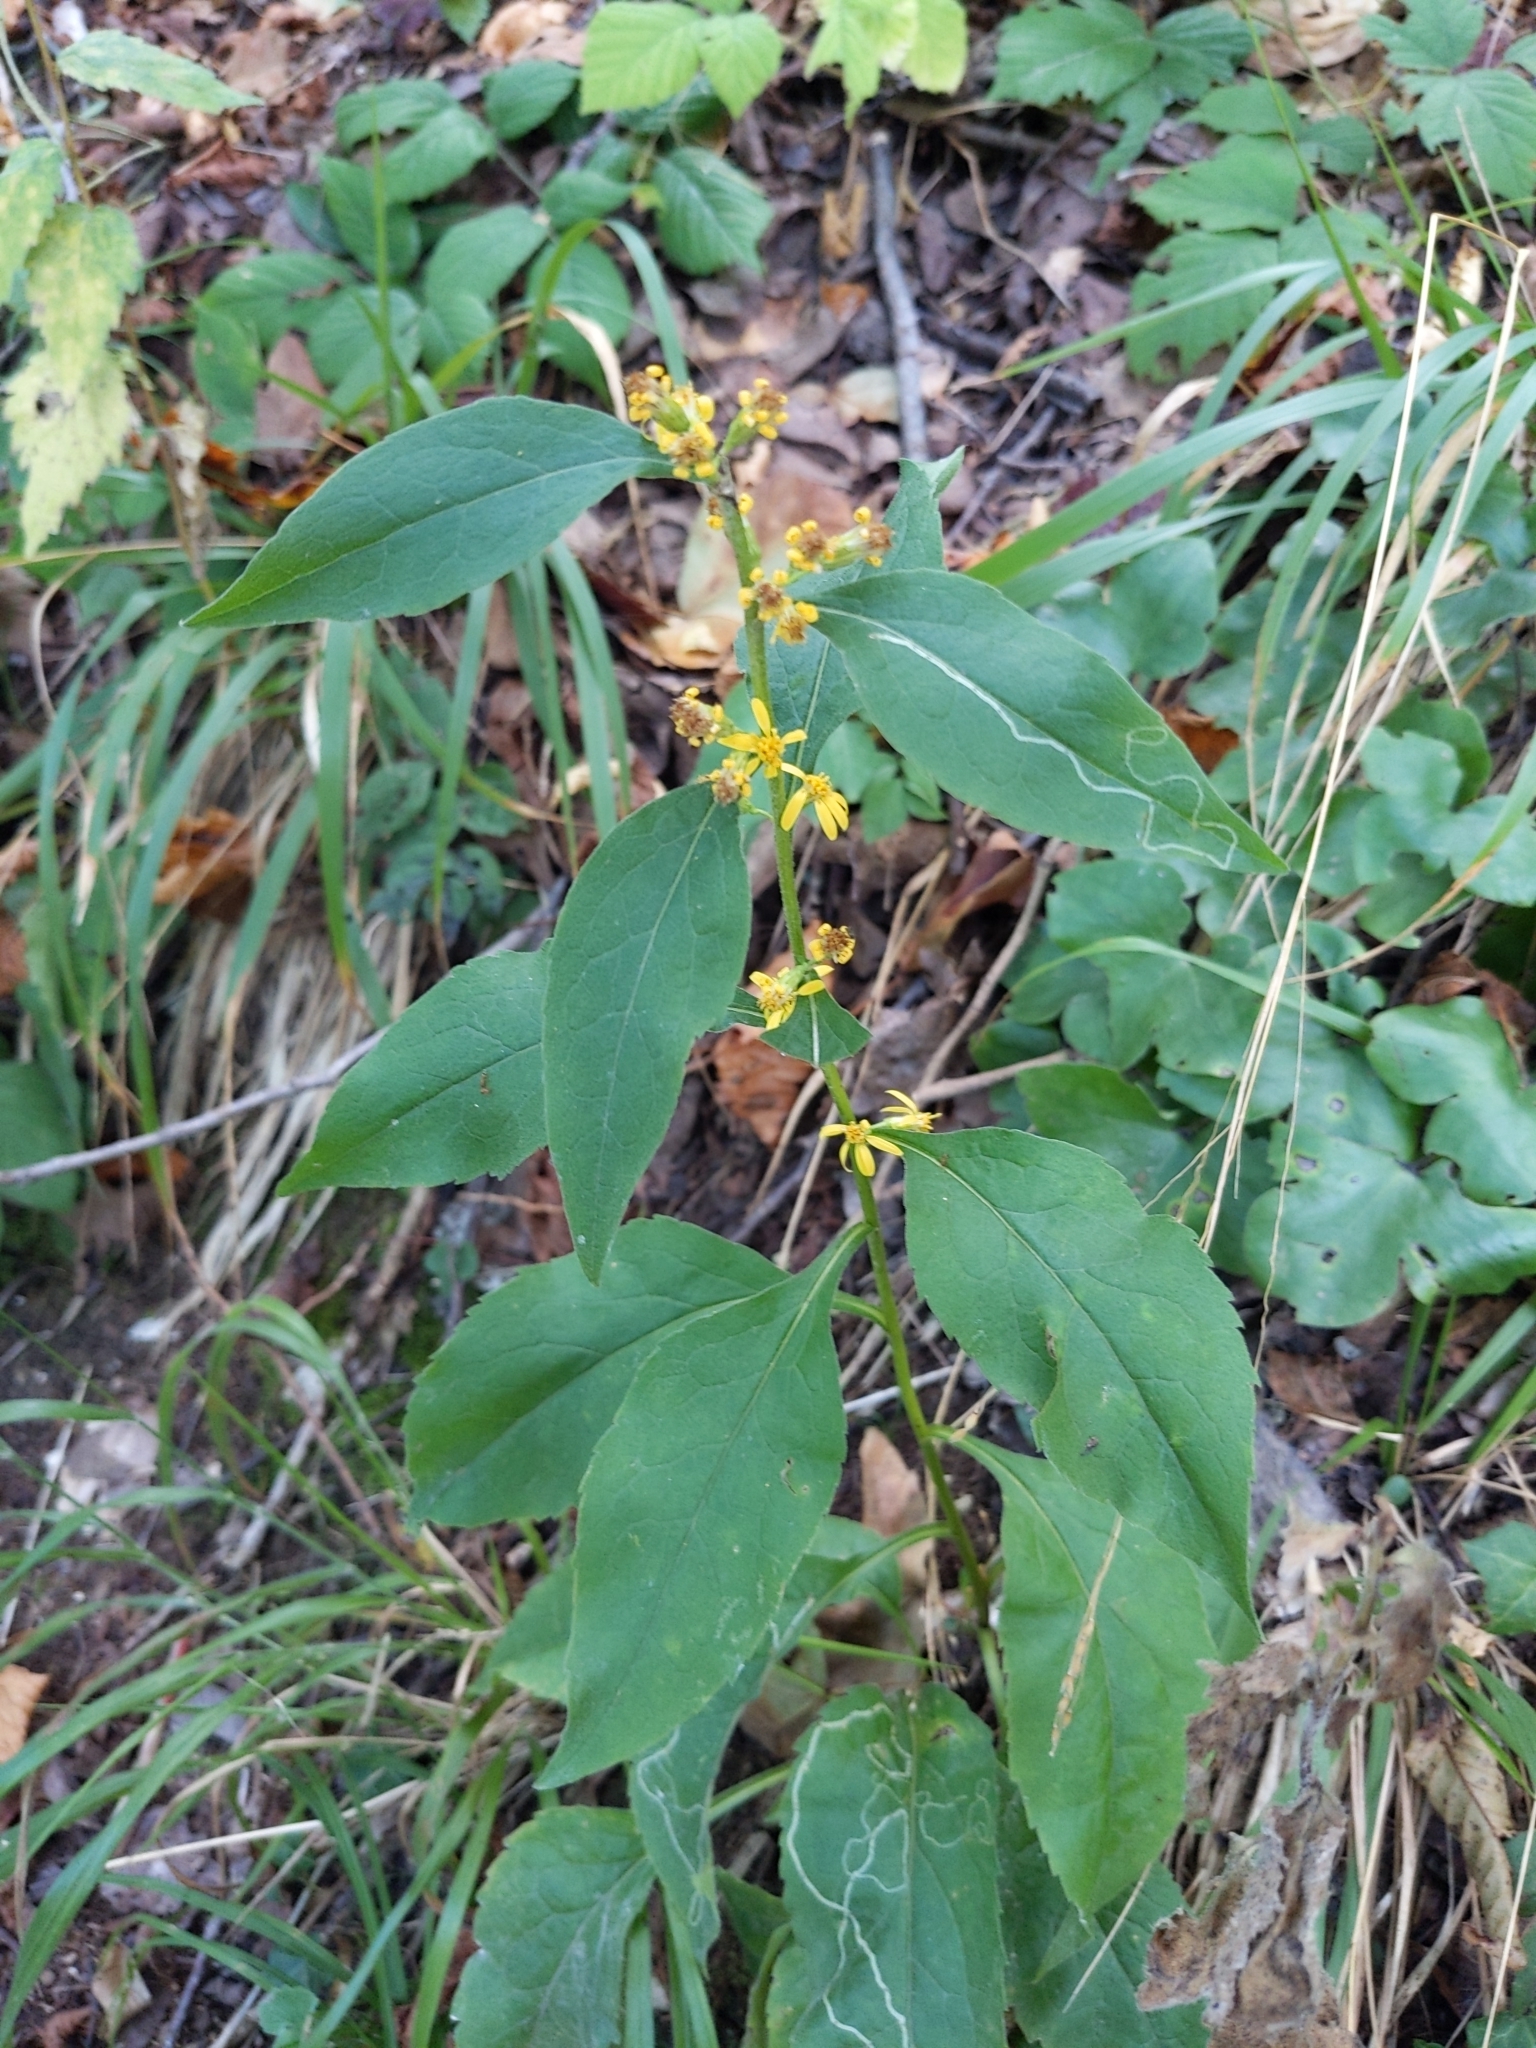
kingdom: Plantae
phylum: Tracheophyta
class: Magnoliopsida
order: Asterales
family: Asteraceae
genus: Solidago
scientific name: Solidago virgaurea
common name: Goldenrod
